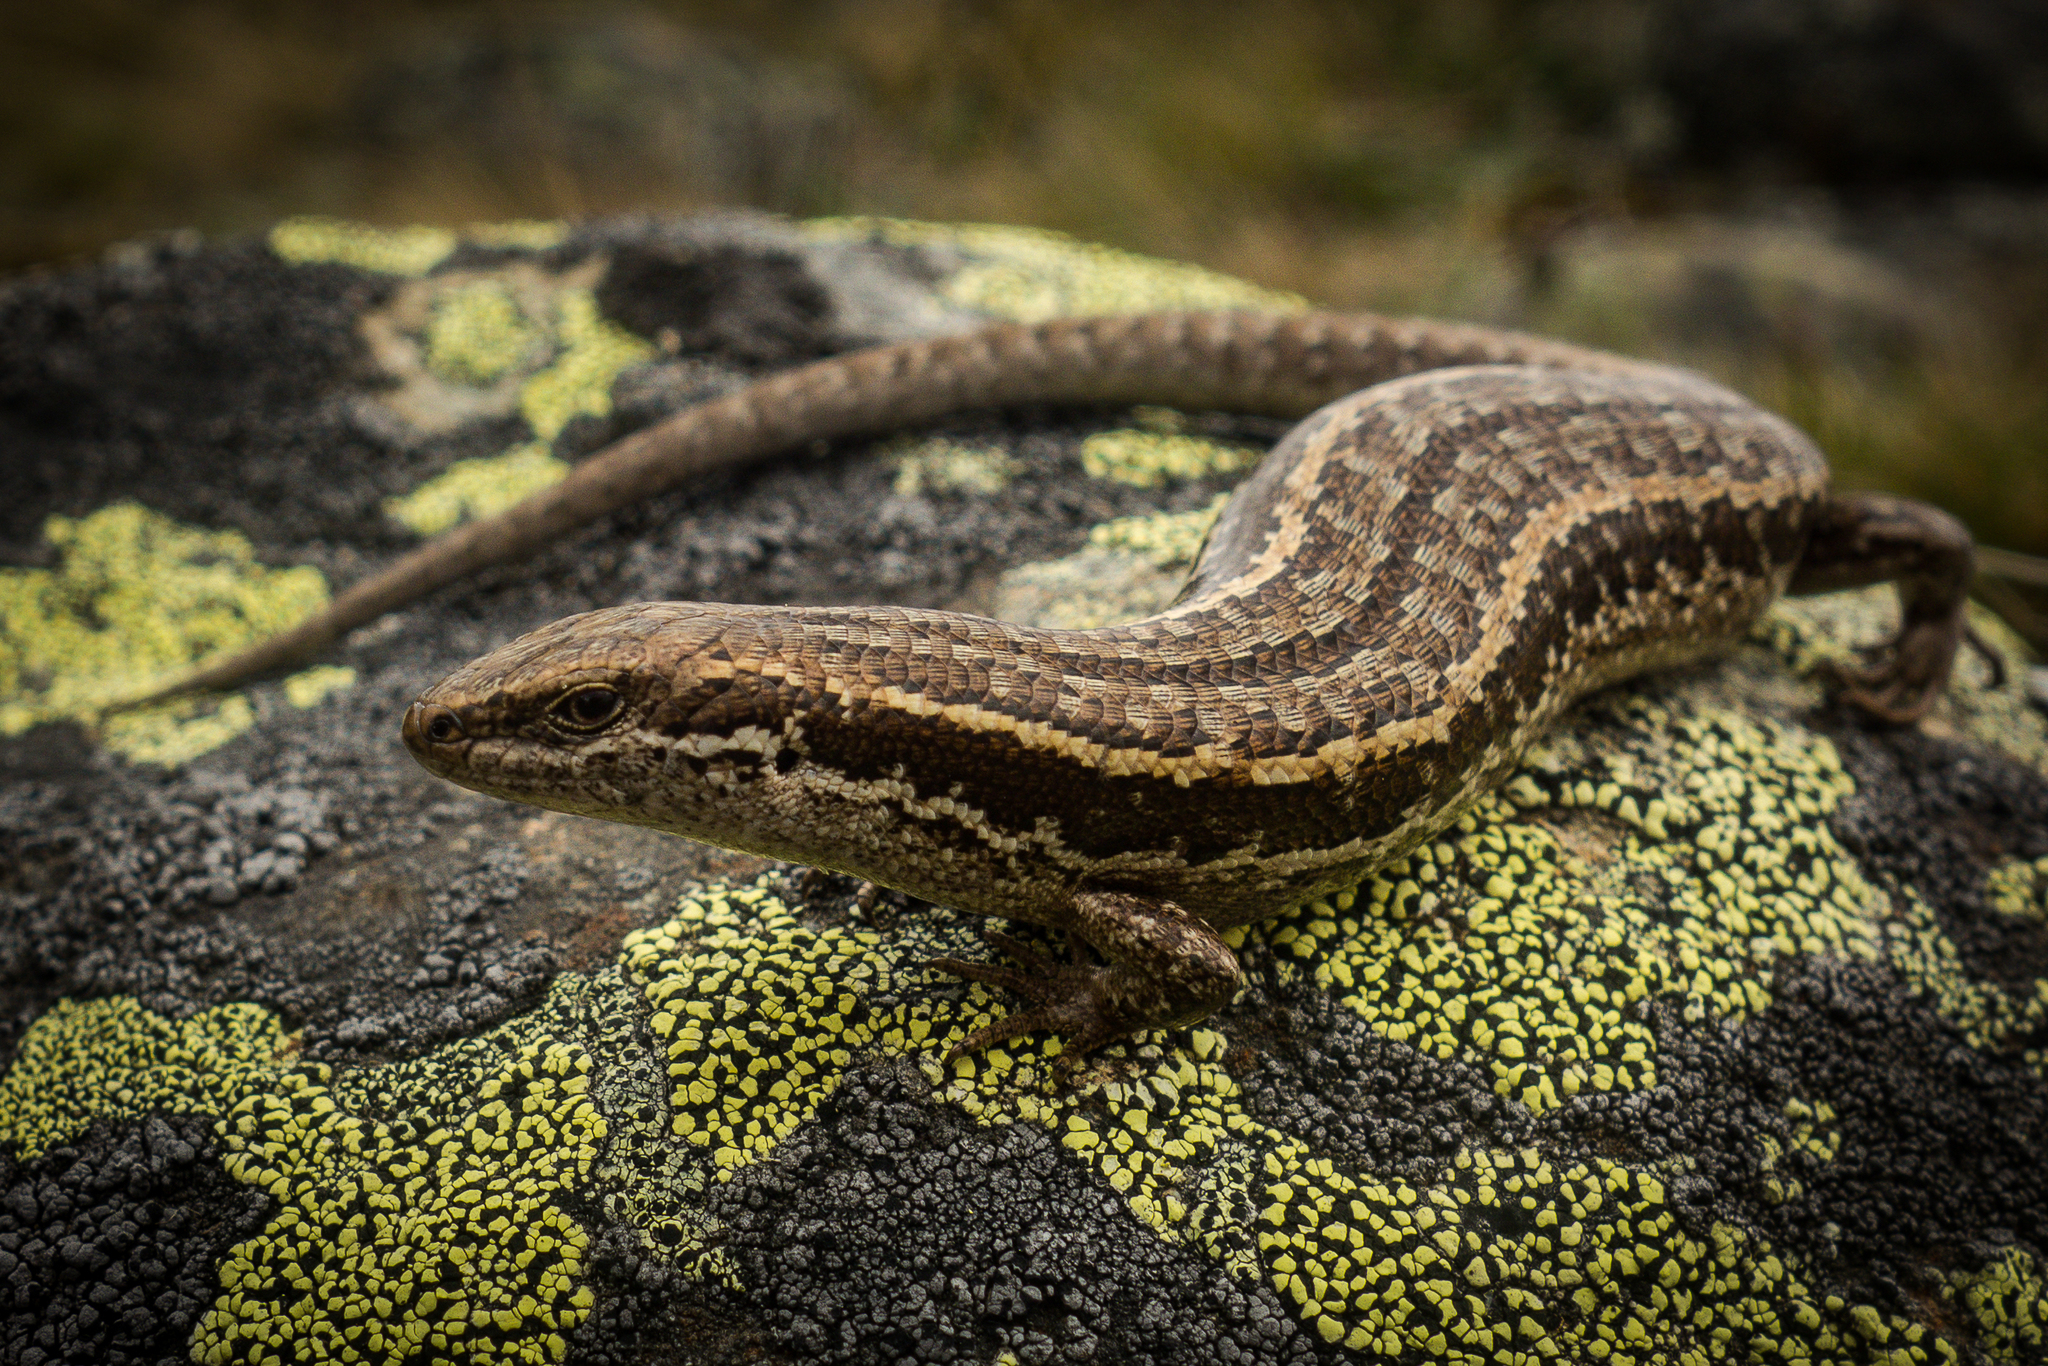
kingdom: Animalia
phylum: Chordata
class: Squamata
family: Scincidae
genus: Oligosoma
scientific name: Oligosoma maccanni
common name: Mccann’s skink
